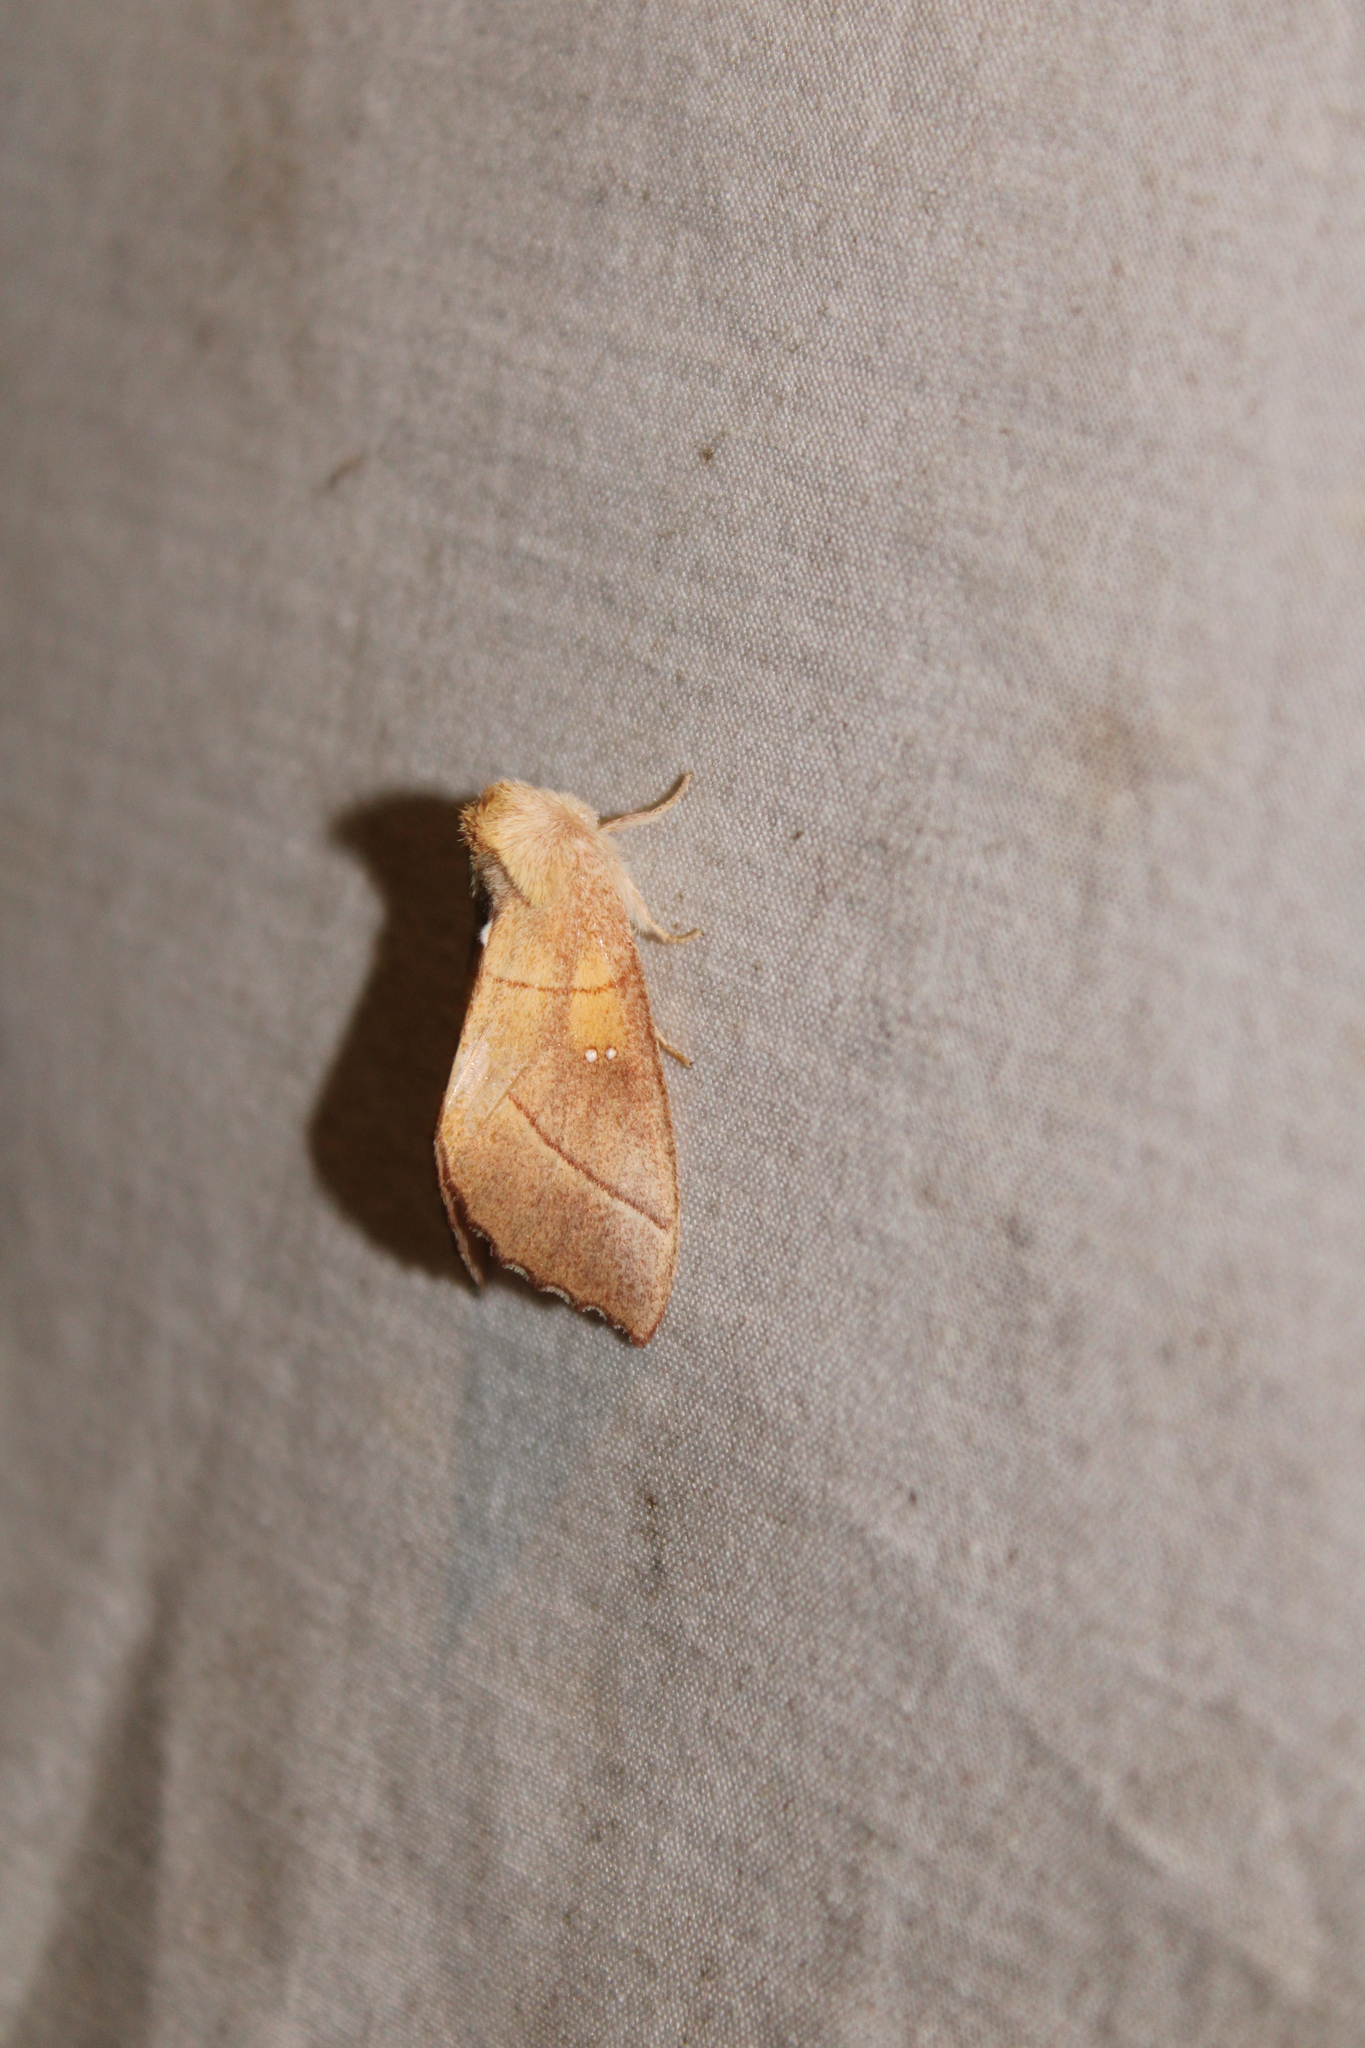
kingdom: Animalia
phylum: Arthropoda
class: Insecta
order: Lepidoptera
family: Notodontidae
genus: Nadata
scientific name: Nadata gibbosa
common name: White-dotted prominent
